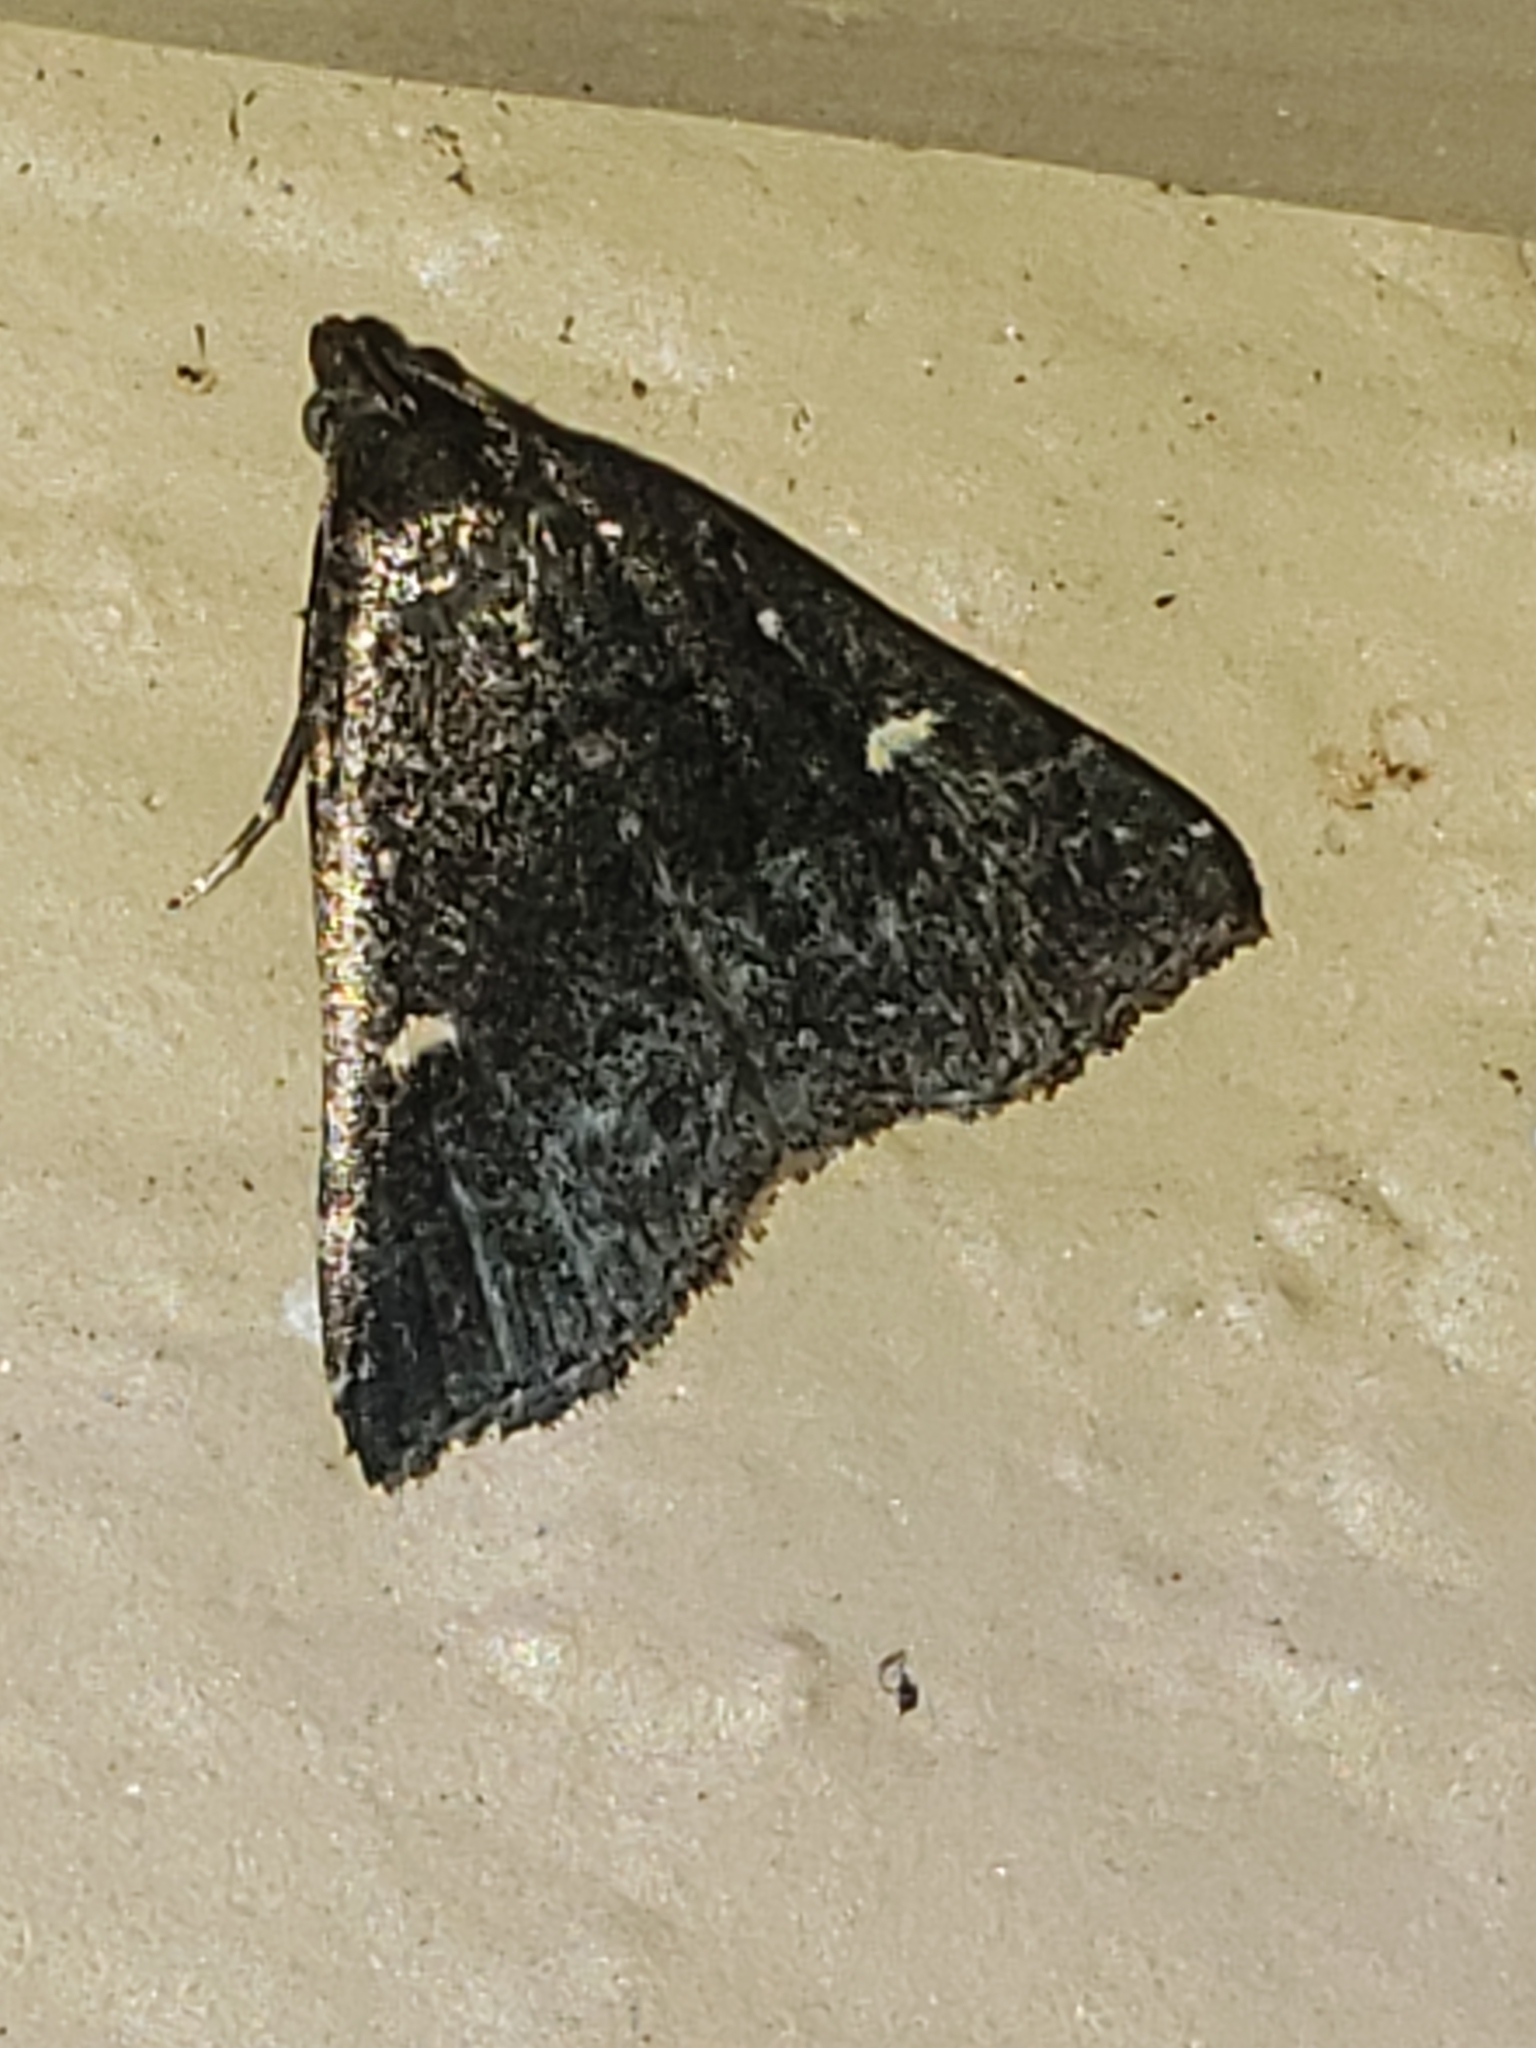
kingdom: Animalia
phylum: Arthropoda
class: Insecta
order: Lepidoptera
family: Erebidae
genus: Tetanolita
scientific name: Tetanolita mynesalis
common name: Smoky tetanolita moth
